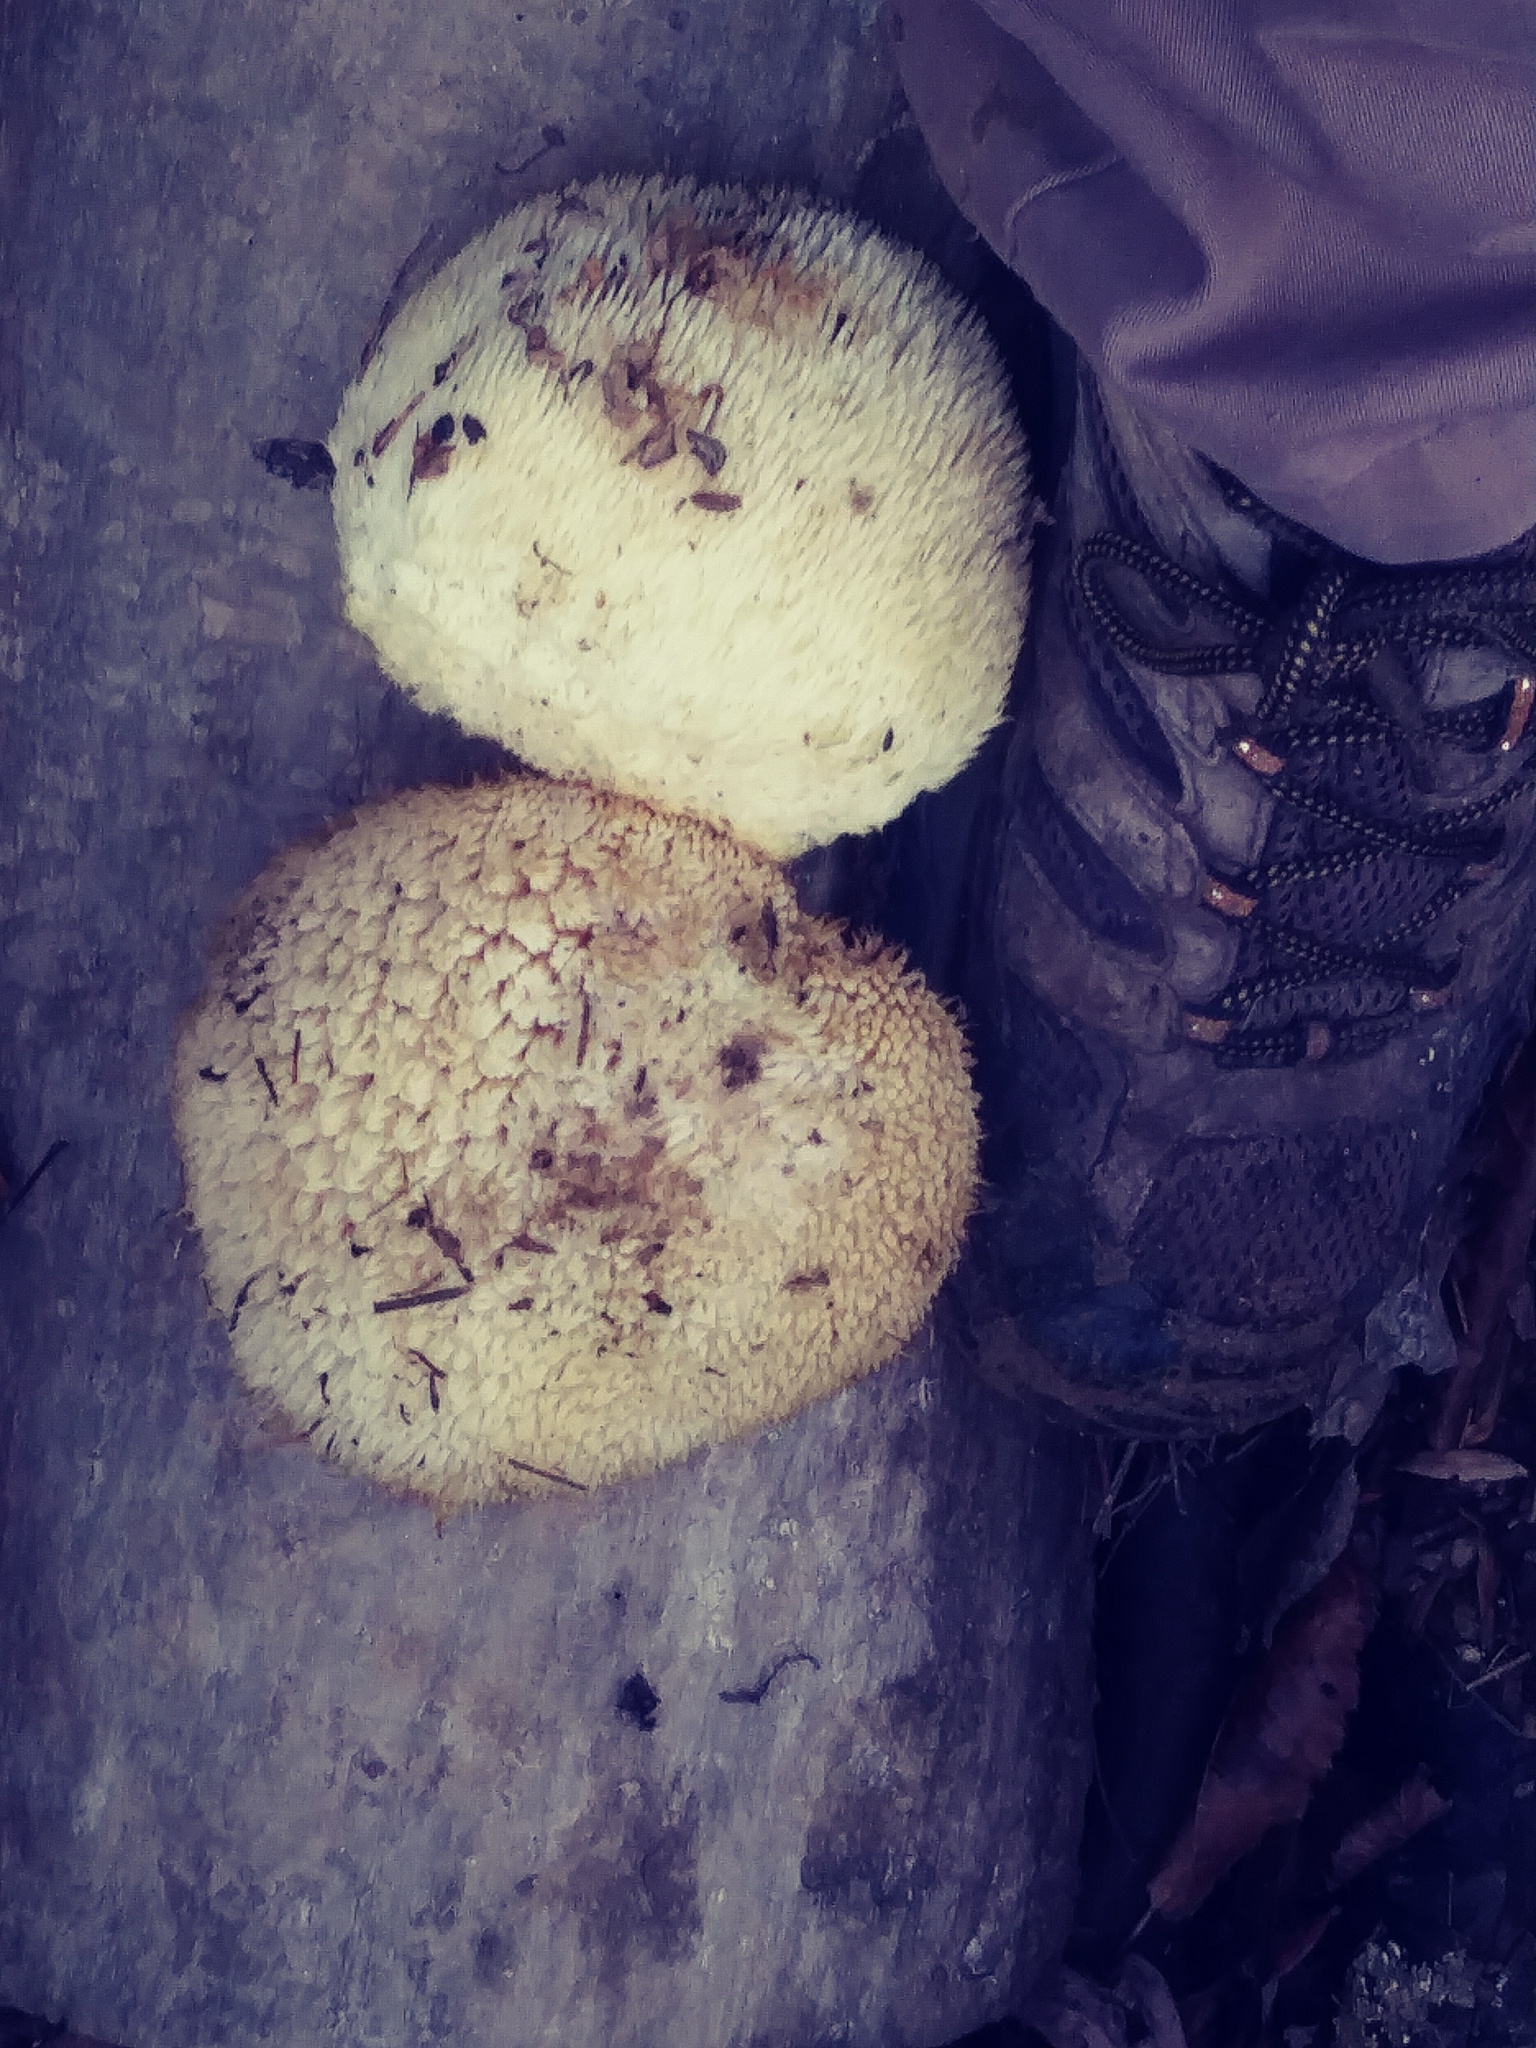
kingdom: Fungi
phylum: Basidiomycota
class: Agaricomycetes
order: Russulales
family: Hericiaceae
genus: Hericium
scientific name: Hericium erinaceus
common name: Bearded tooth
